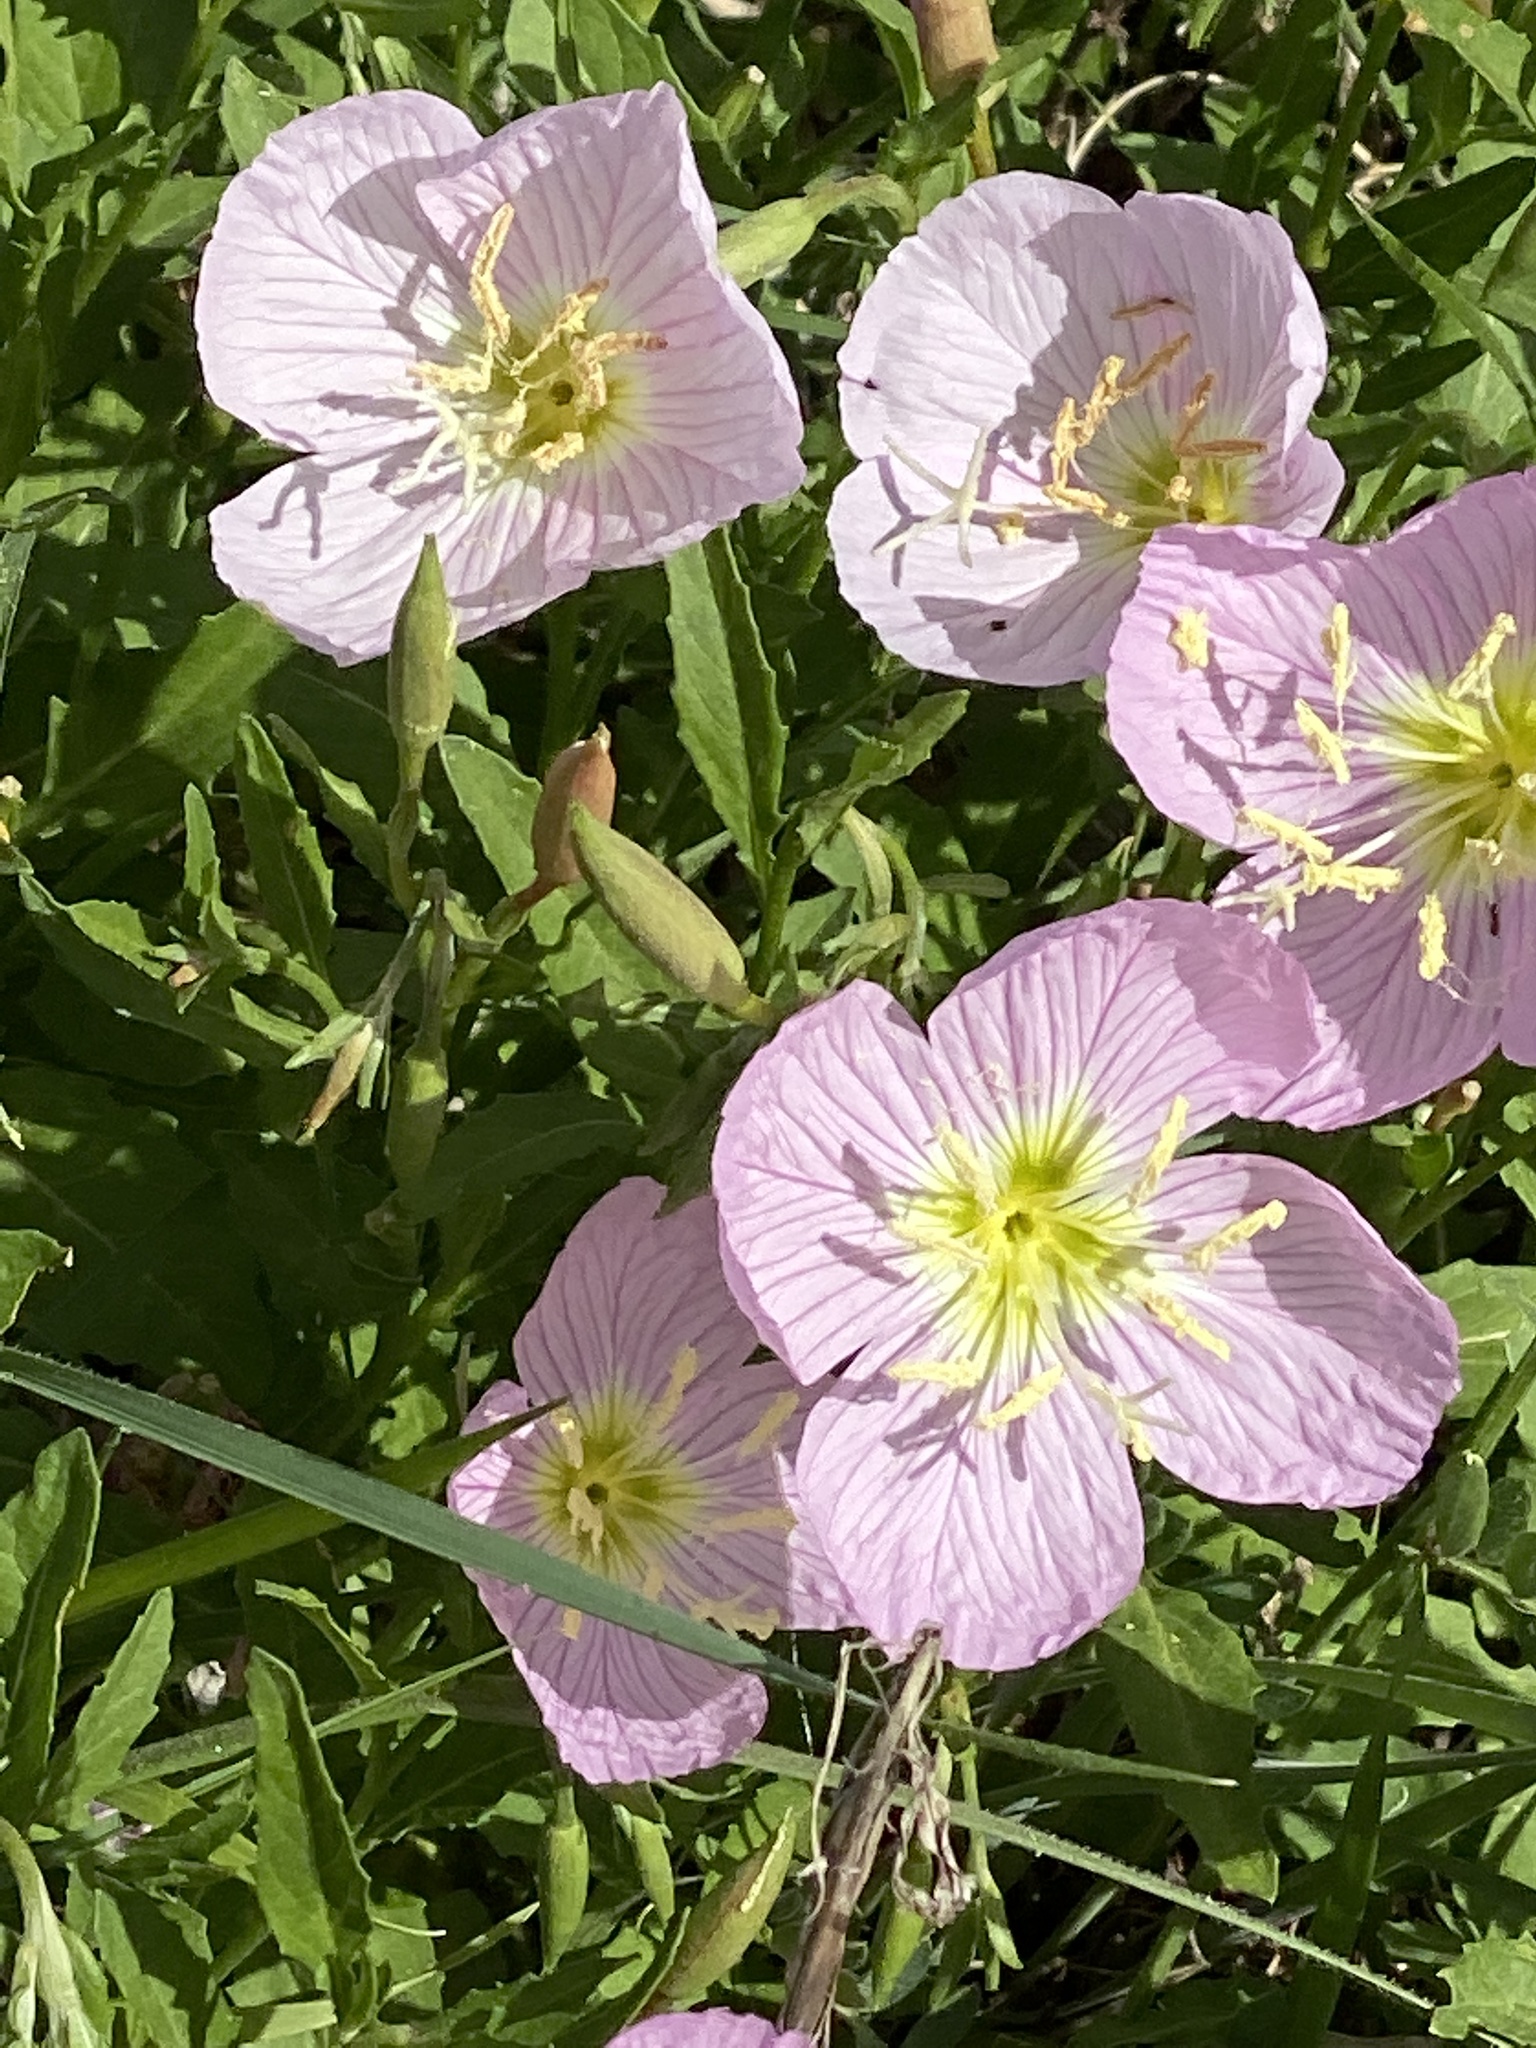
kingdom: Plantae
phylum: Tracheophyta
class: Magnoliopsida
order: Myrtales
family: Onagraceae
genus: Oenothera
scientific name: Oenothera speciosa
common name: White evening-primrose
